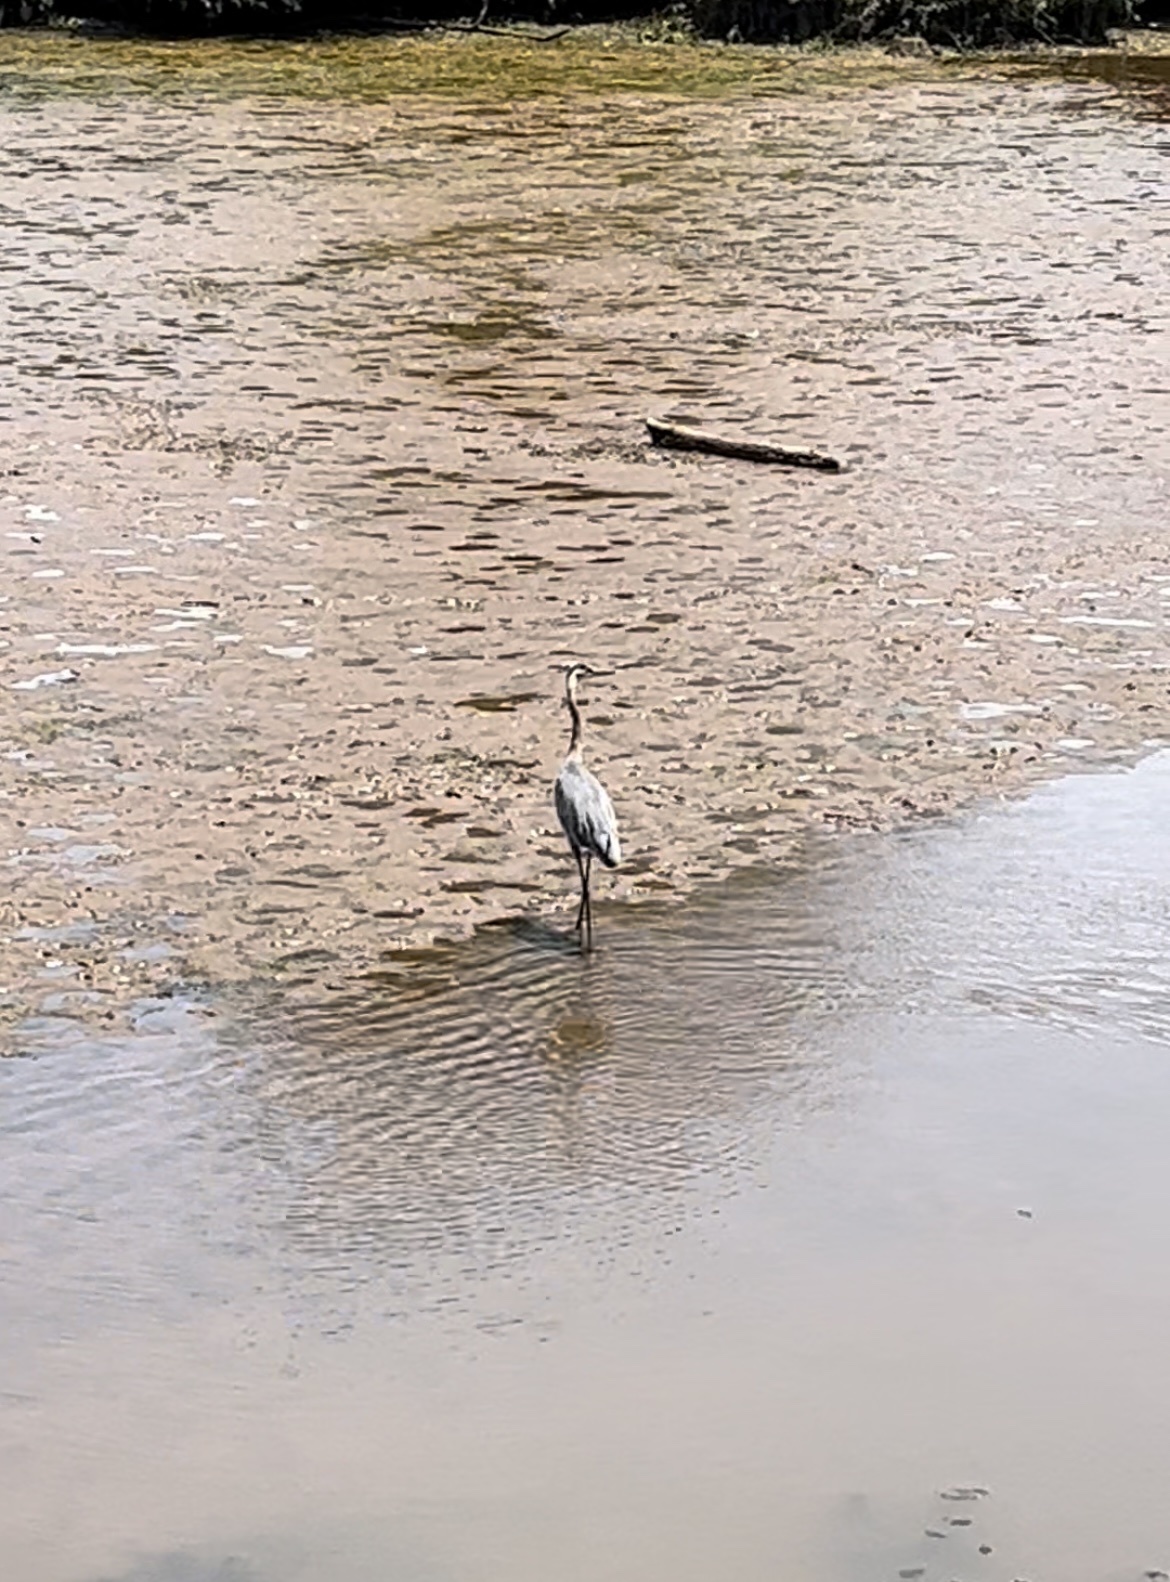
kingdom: Animalia
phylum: Chordata
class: Aves
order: Pelecaniformes
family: Ardeidae
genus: Ardea
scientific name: Ardea herodias
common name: Great blue heron
